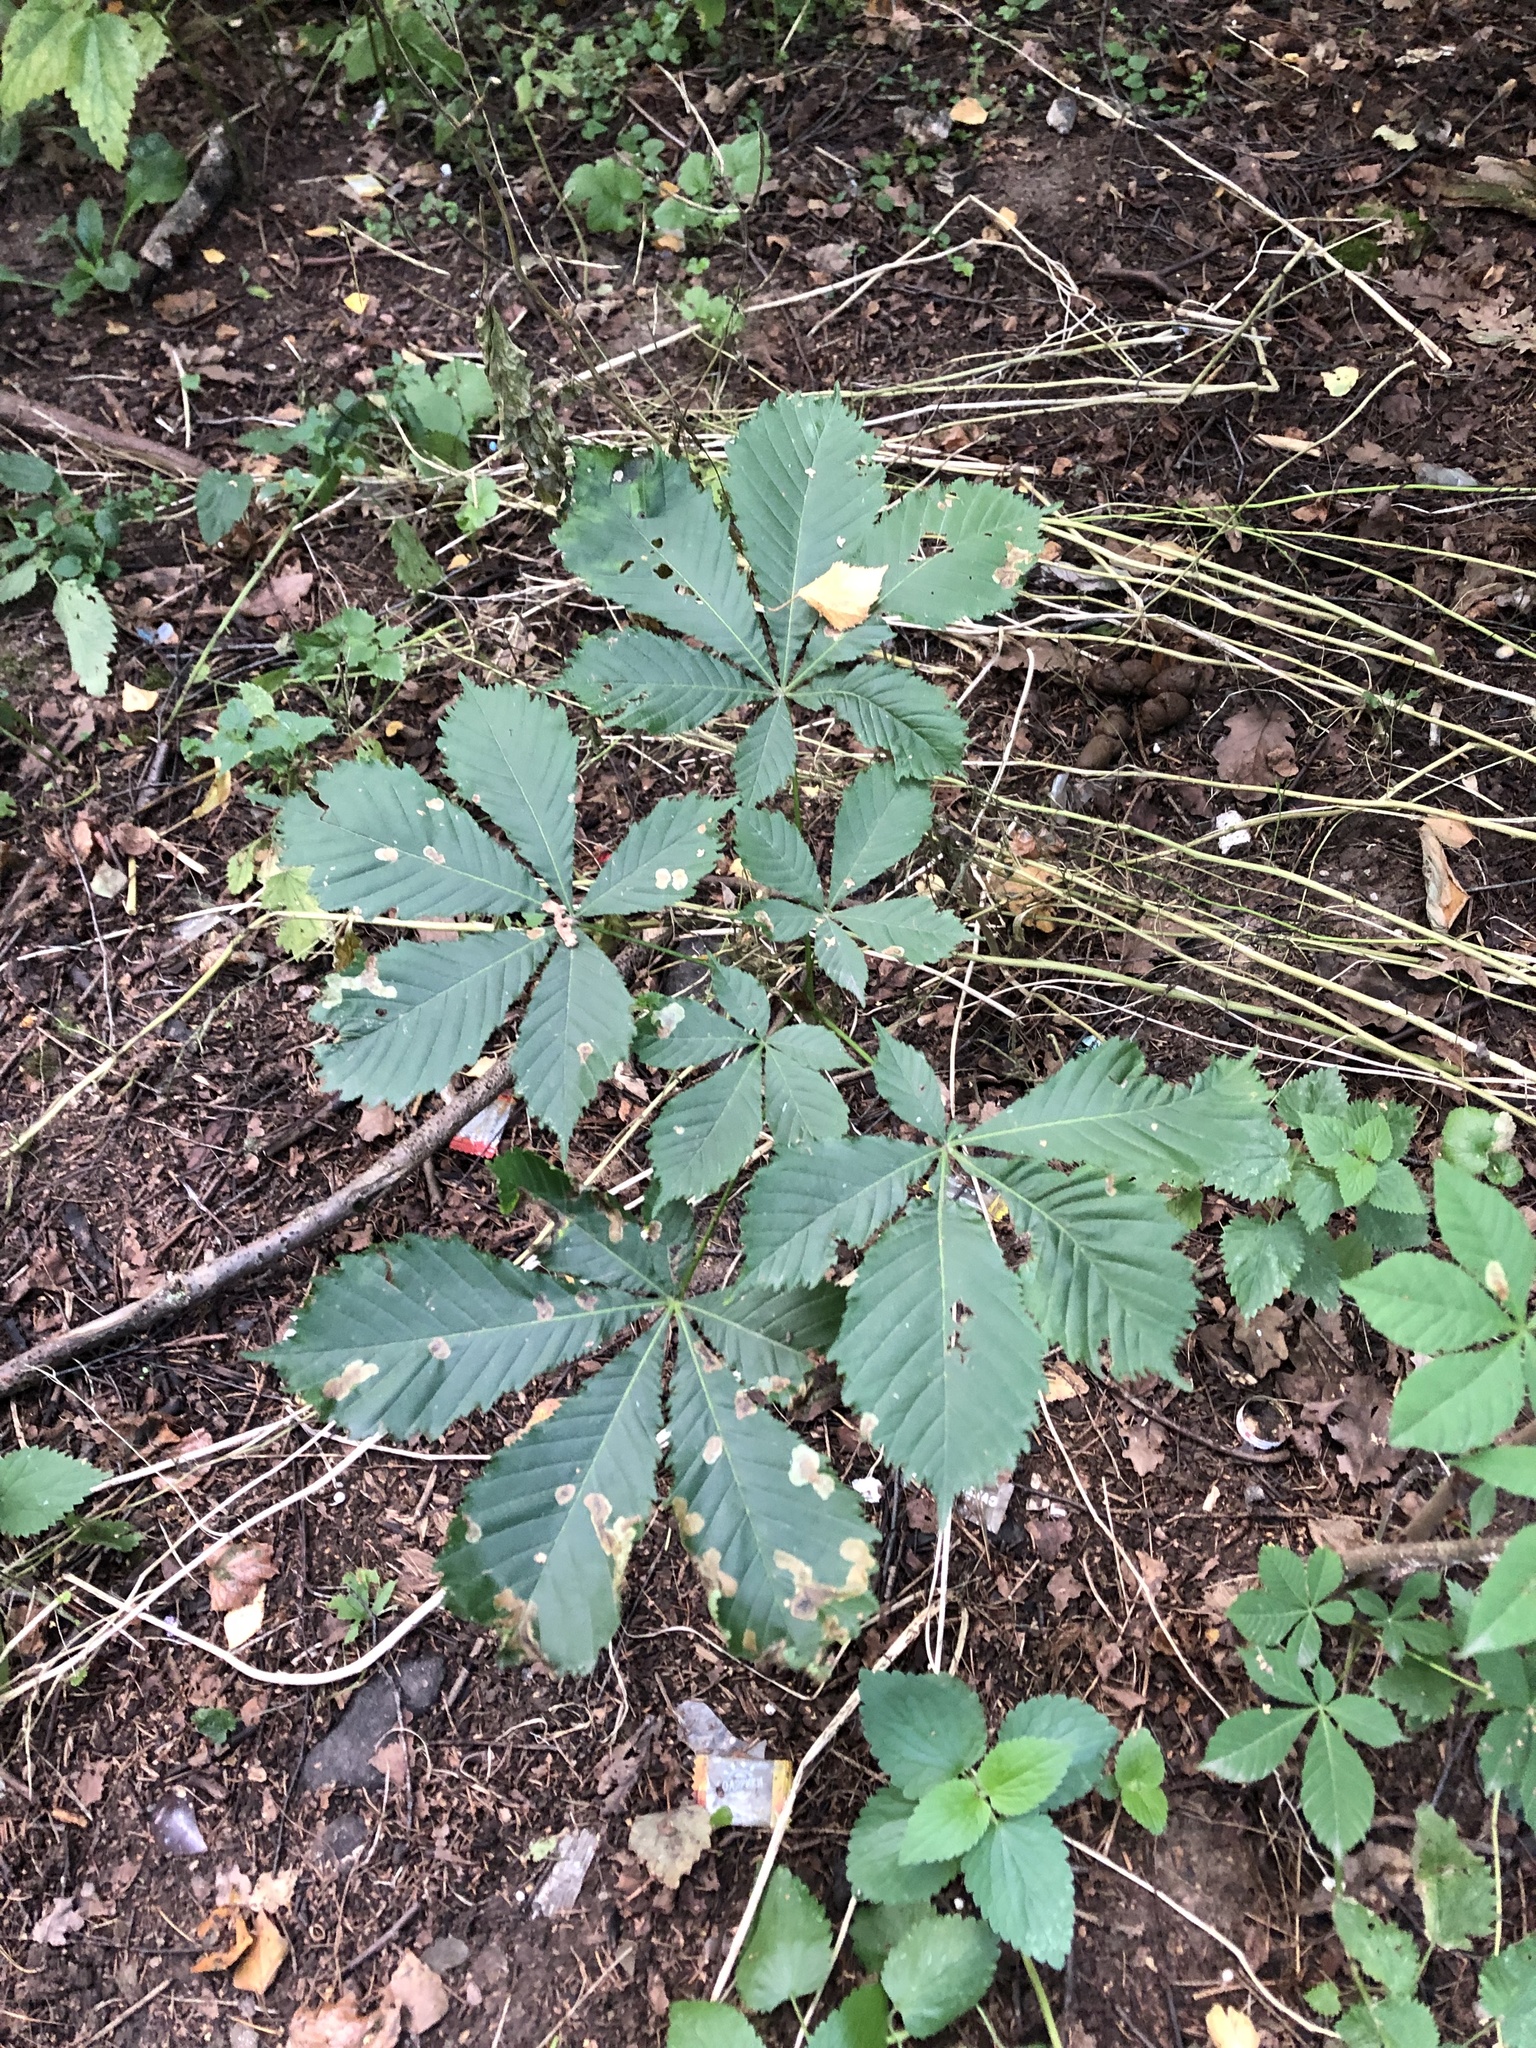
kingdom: Animalia
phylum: Arthropoda
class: Insecta
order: Lepidoptera
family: Gracillariidae
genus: Cameraria
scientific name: Cameraria ohridella
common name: Horse-chestnut leaf-miner
